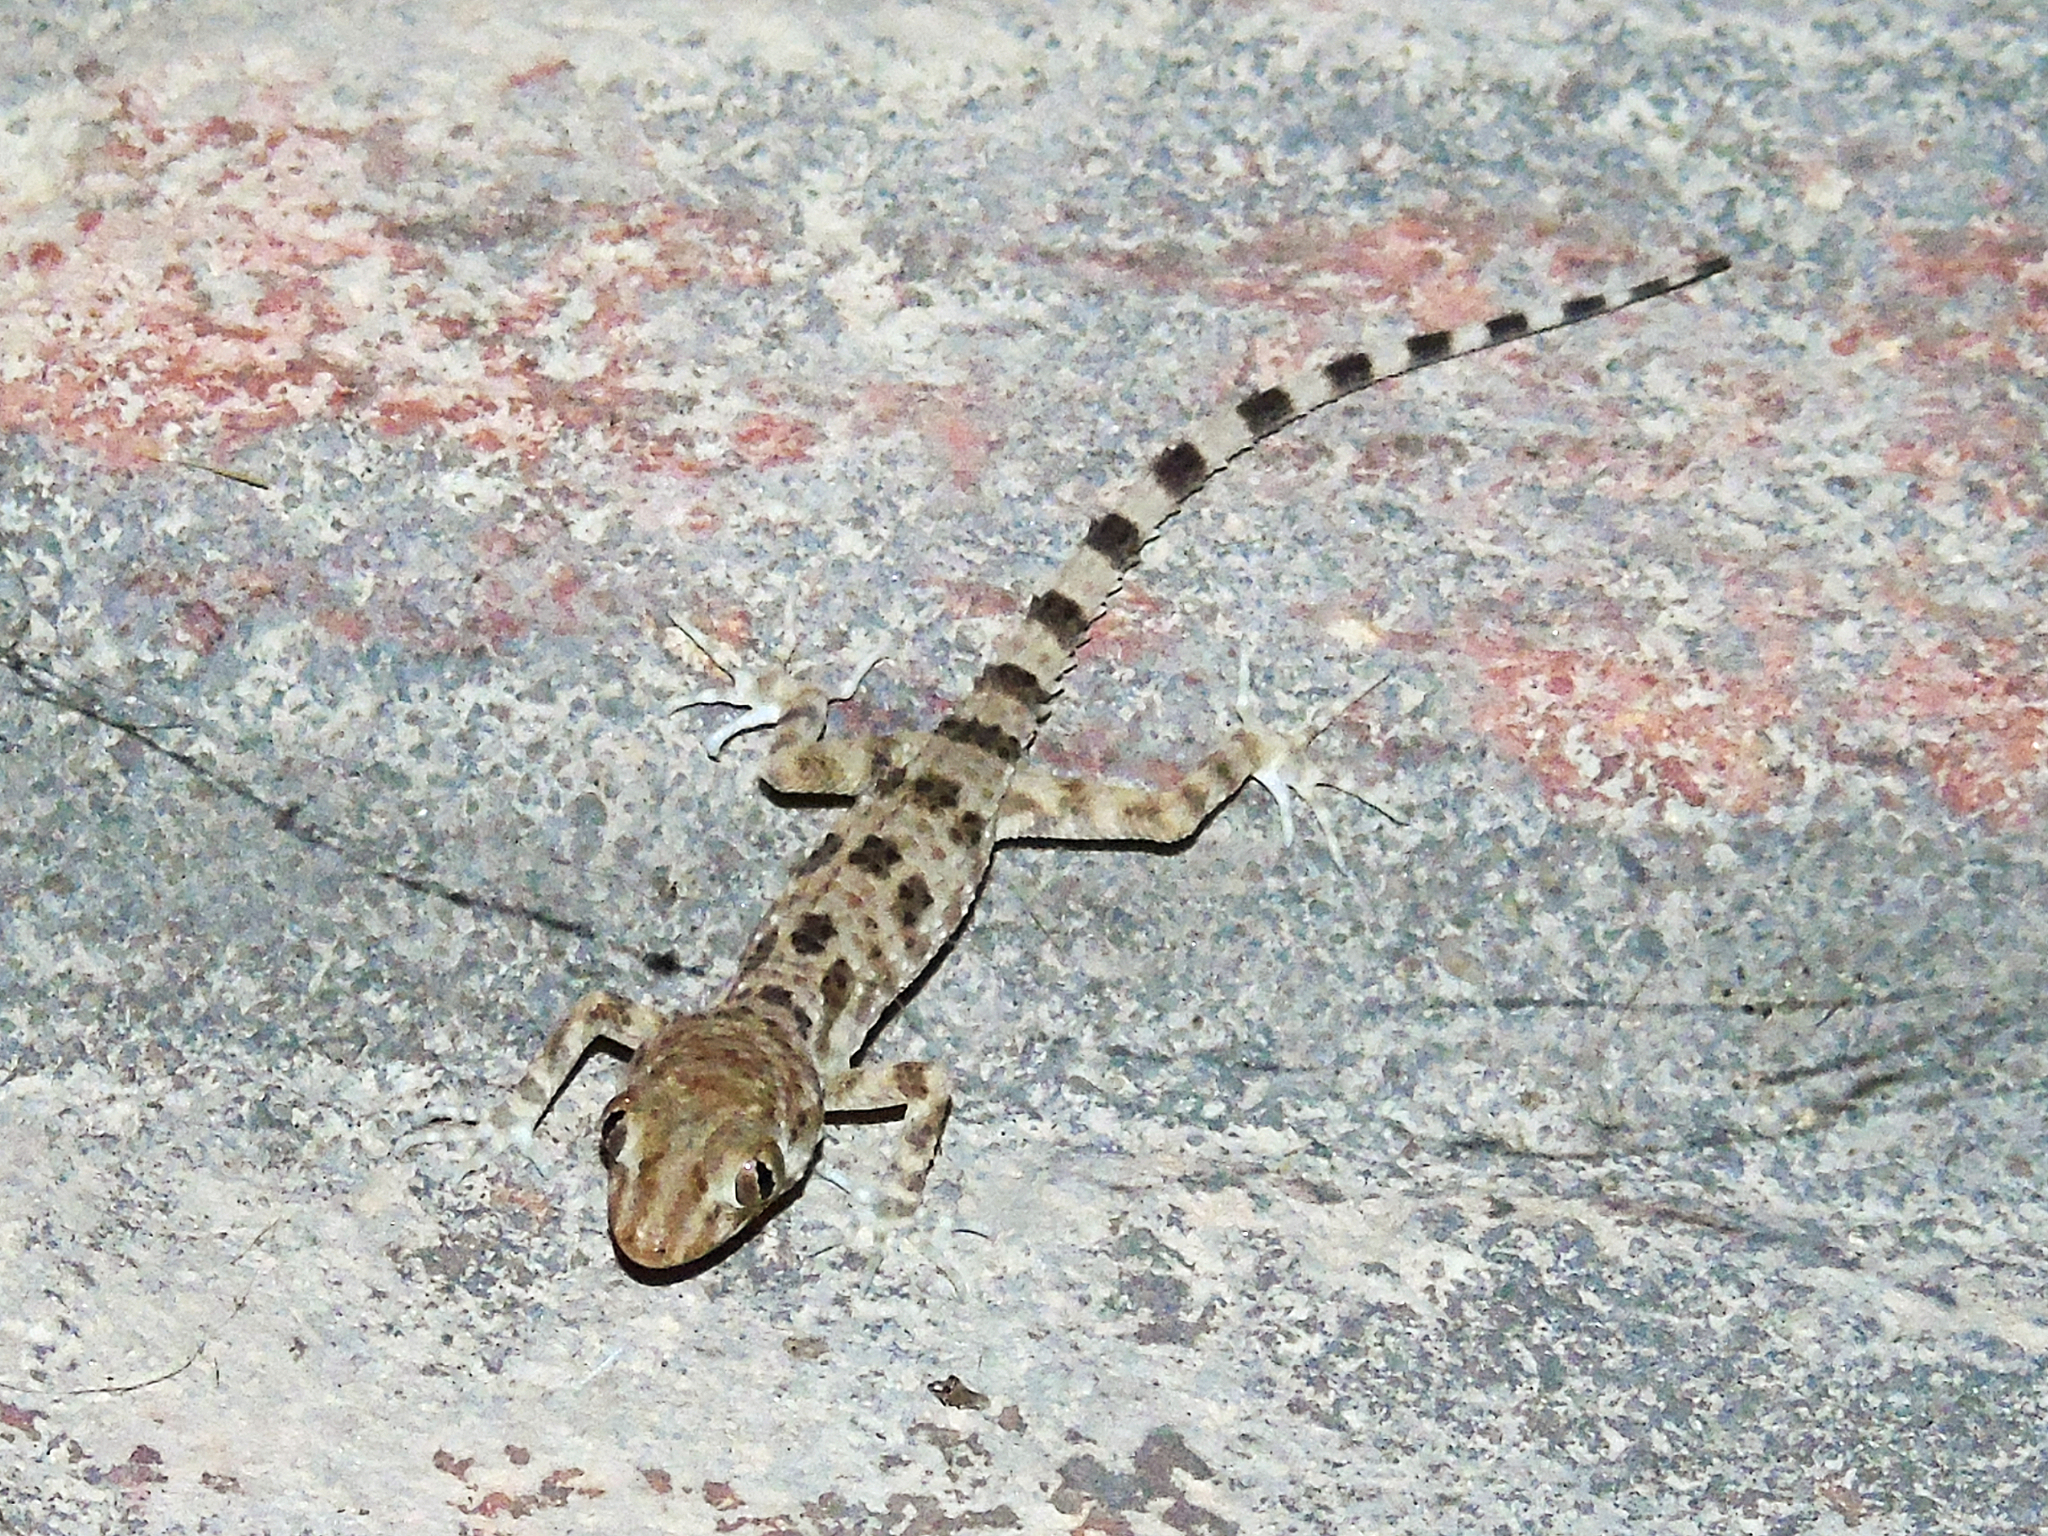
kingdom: Animalia
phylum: Chordata
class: Squamata
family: Gekkonidae
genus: Tenuidactylus
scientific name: Tenuidactylus caspius
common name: Caspian bent-toed gecko
